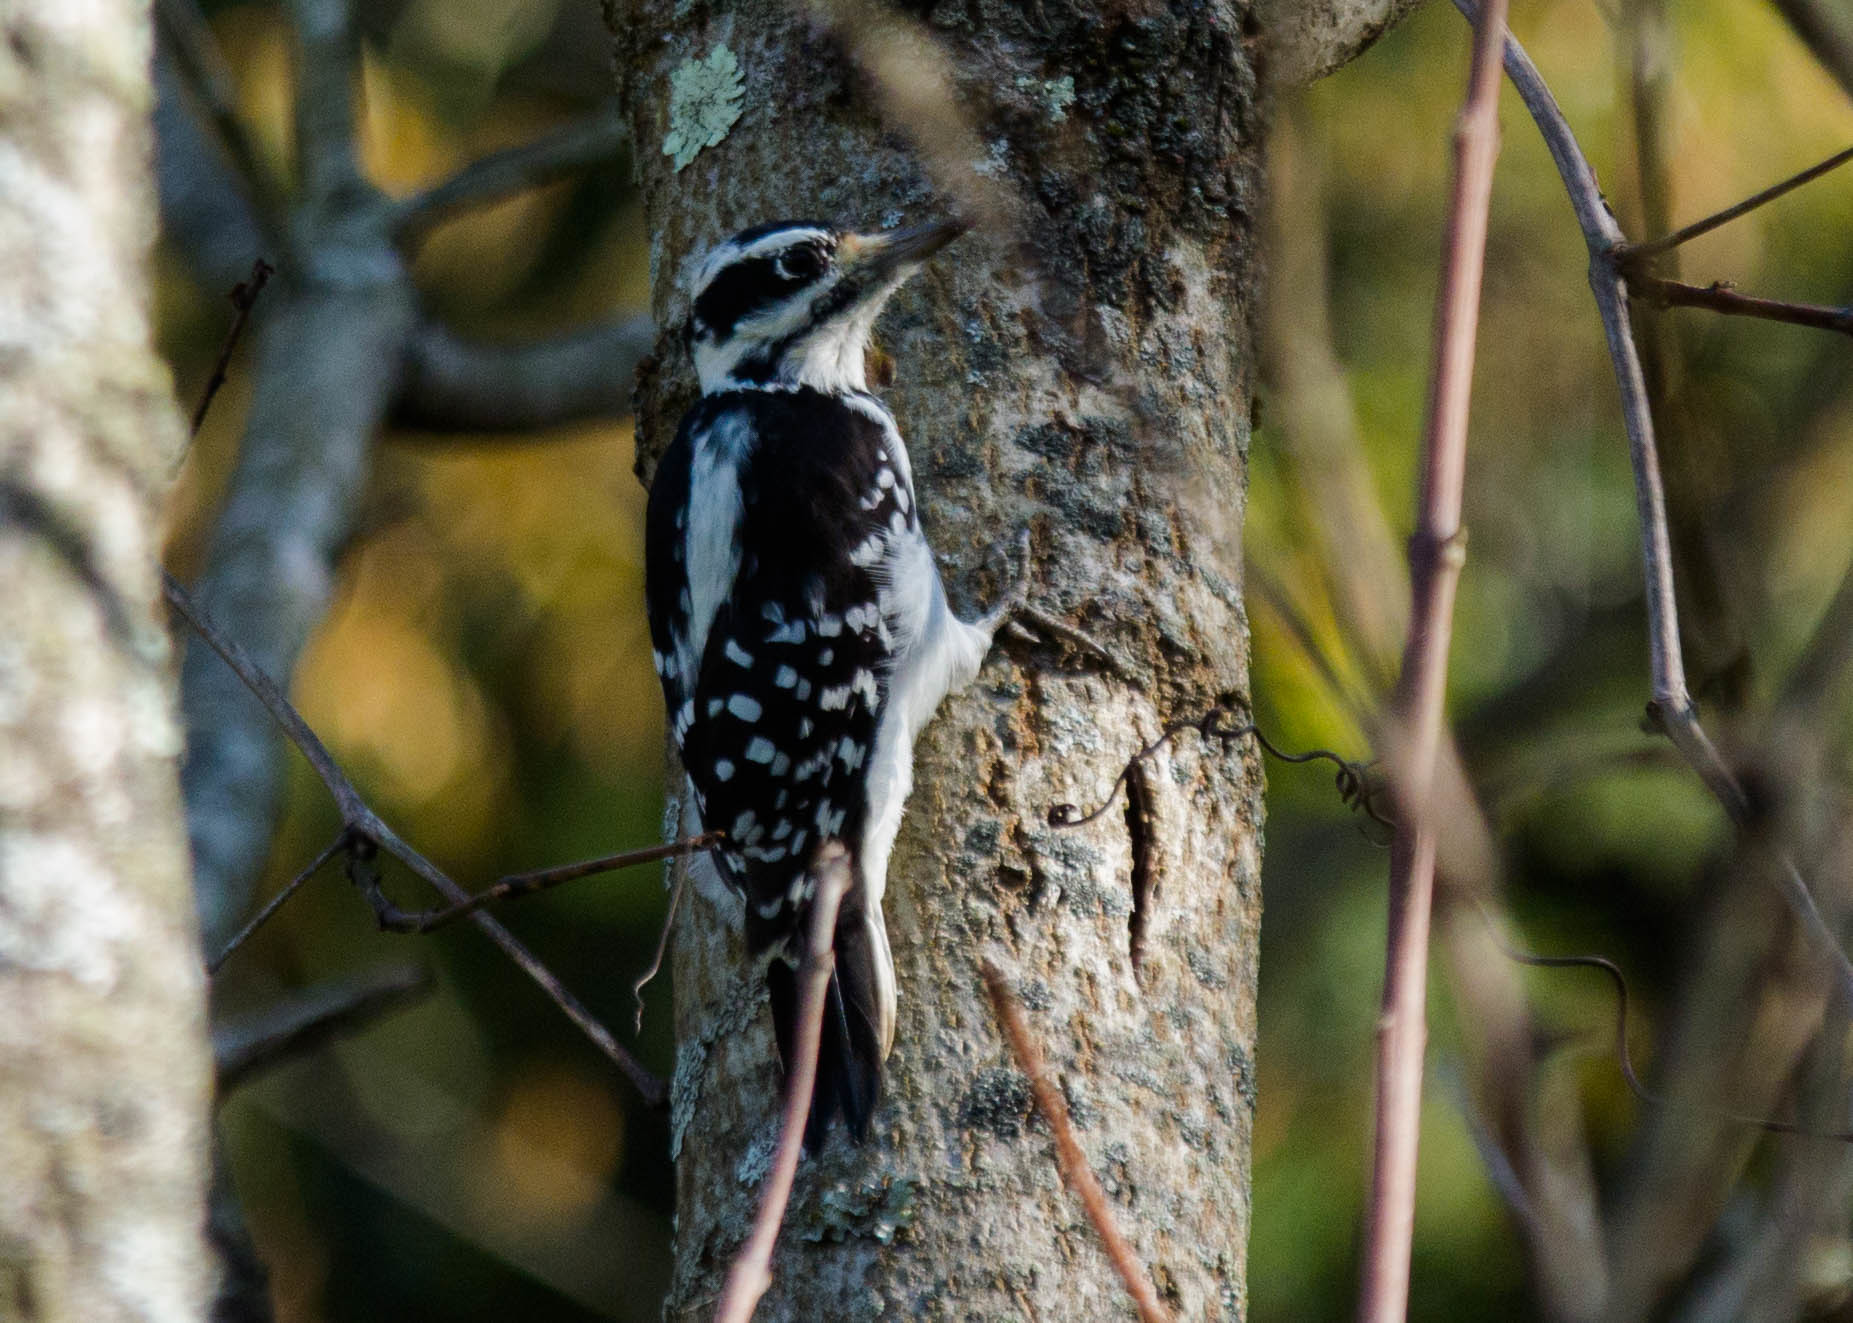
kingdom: Animalia
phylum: Chordata
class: Aves
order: Piciformes
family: Picidae
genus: Leuconotopicus
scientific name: Leuconotopicus villosus
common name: Hairy woodpecker
